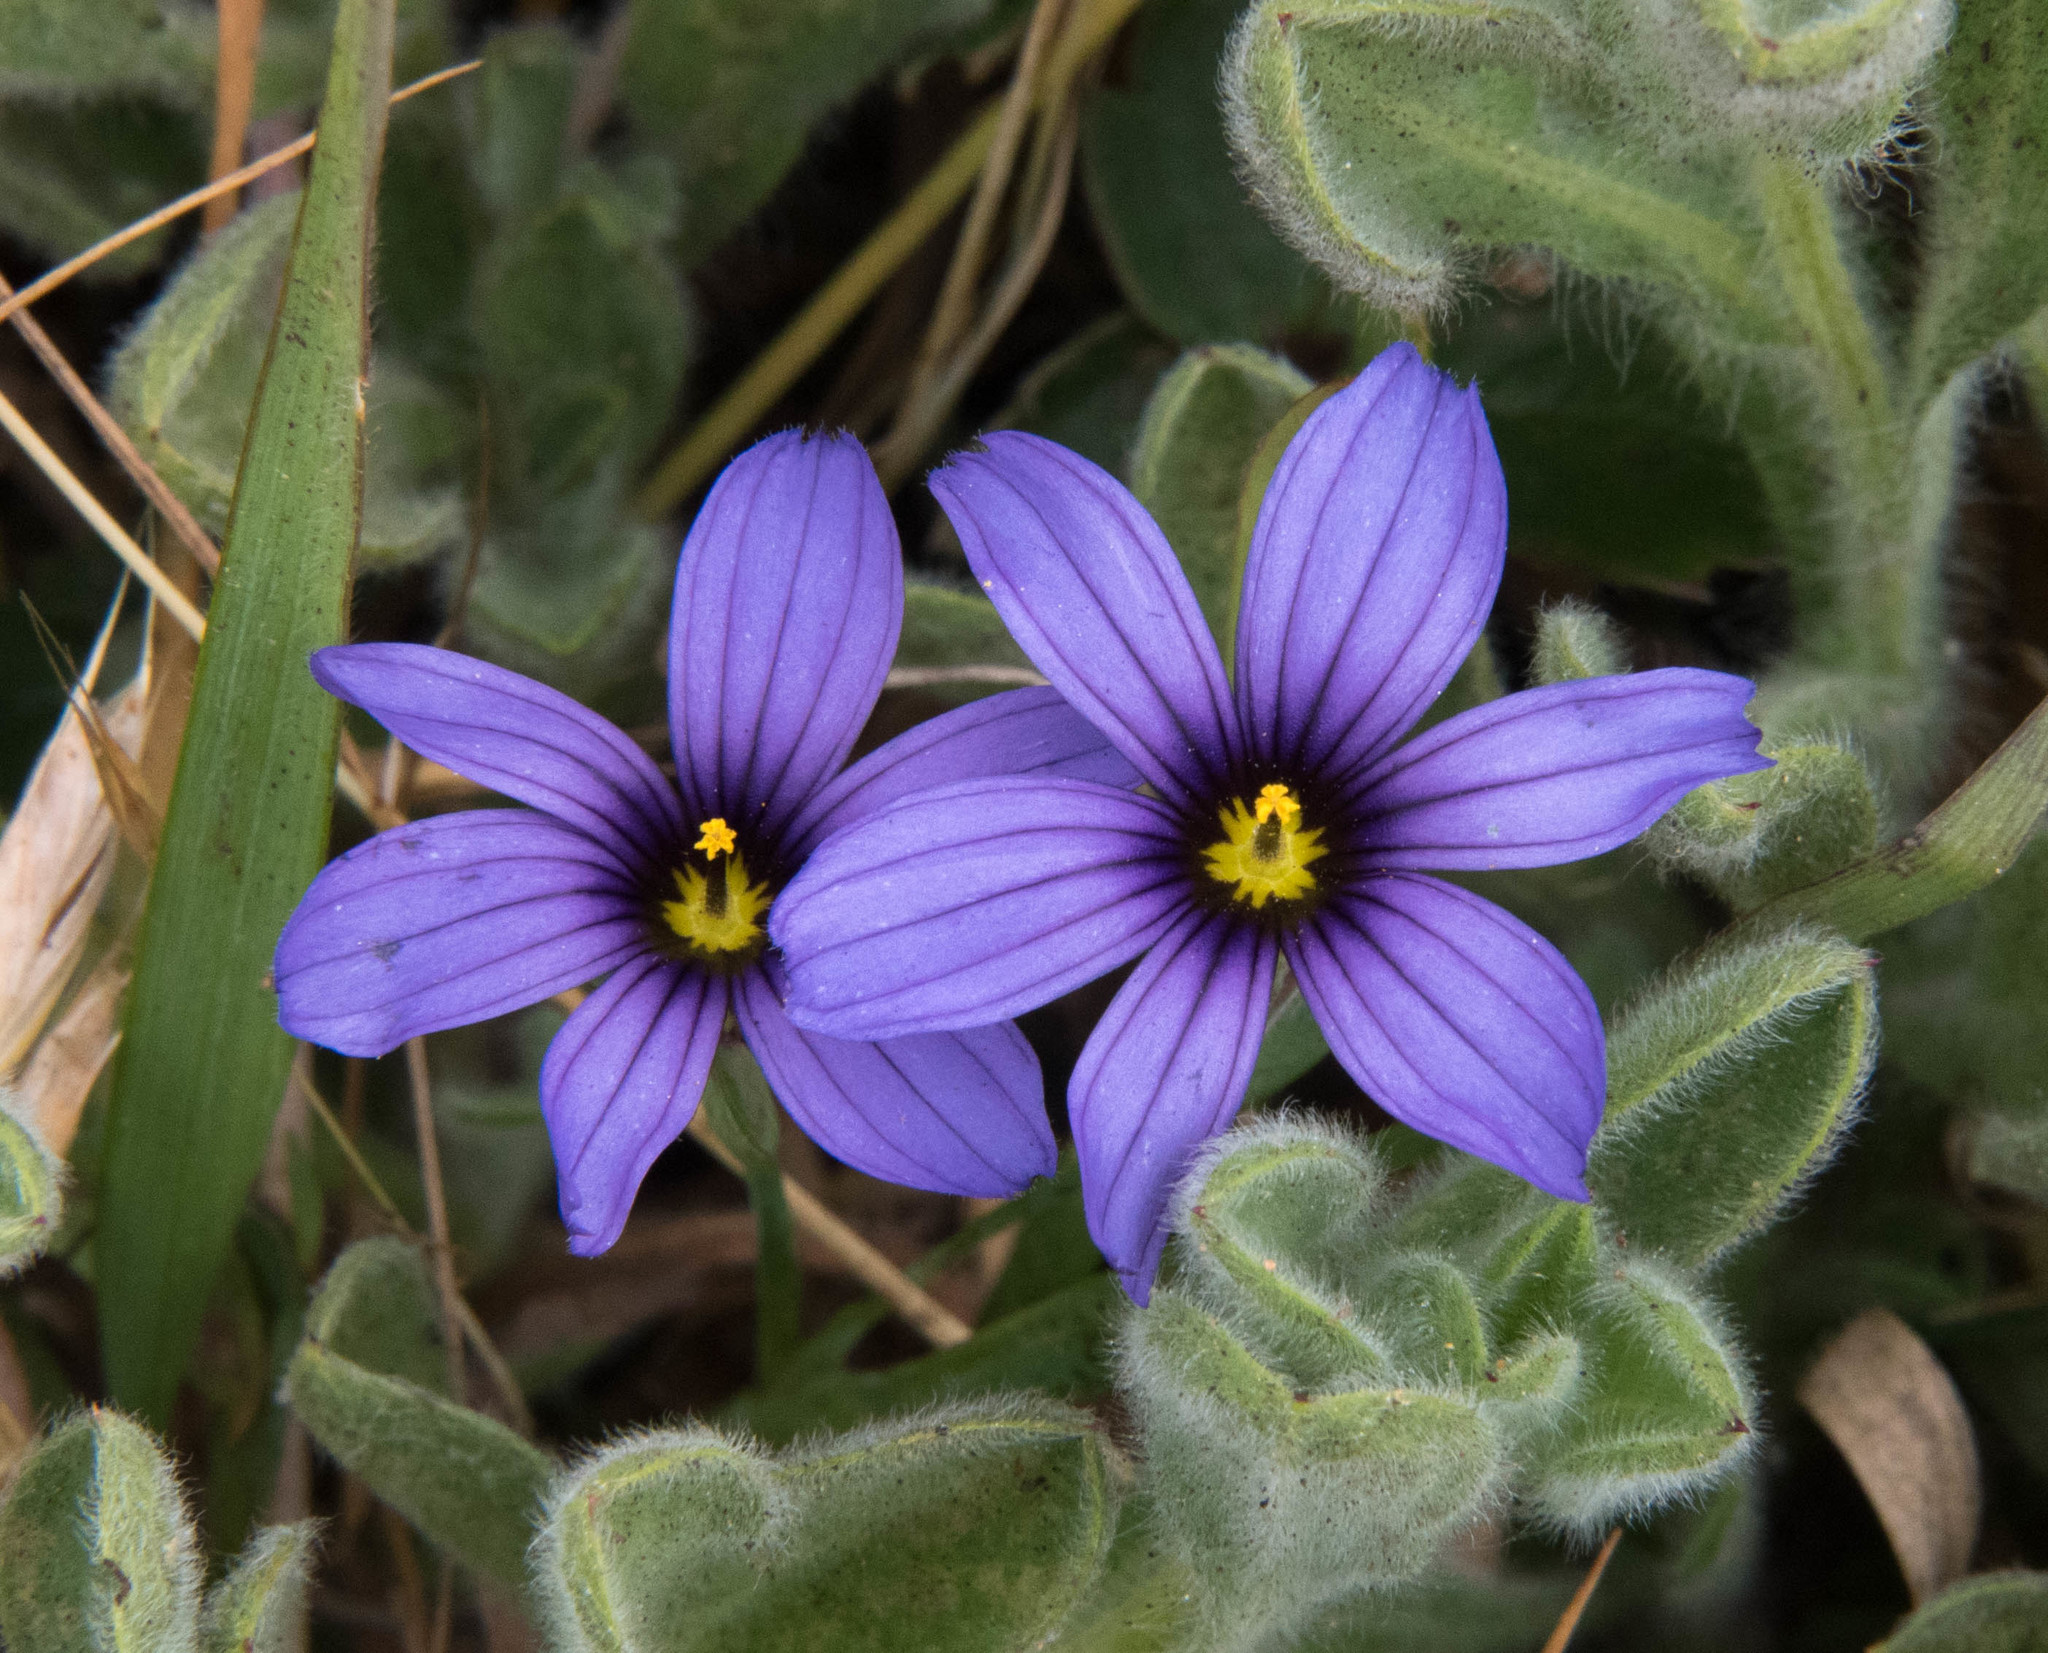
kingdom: Plantae
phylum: Tracheophyta
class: Liliopsida
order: Asparagales
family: Iridaceae
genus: Sisyrinchium
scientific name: Sisyrinchium bellum
